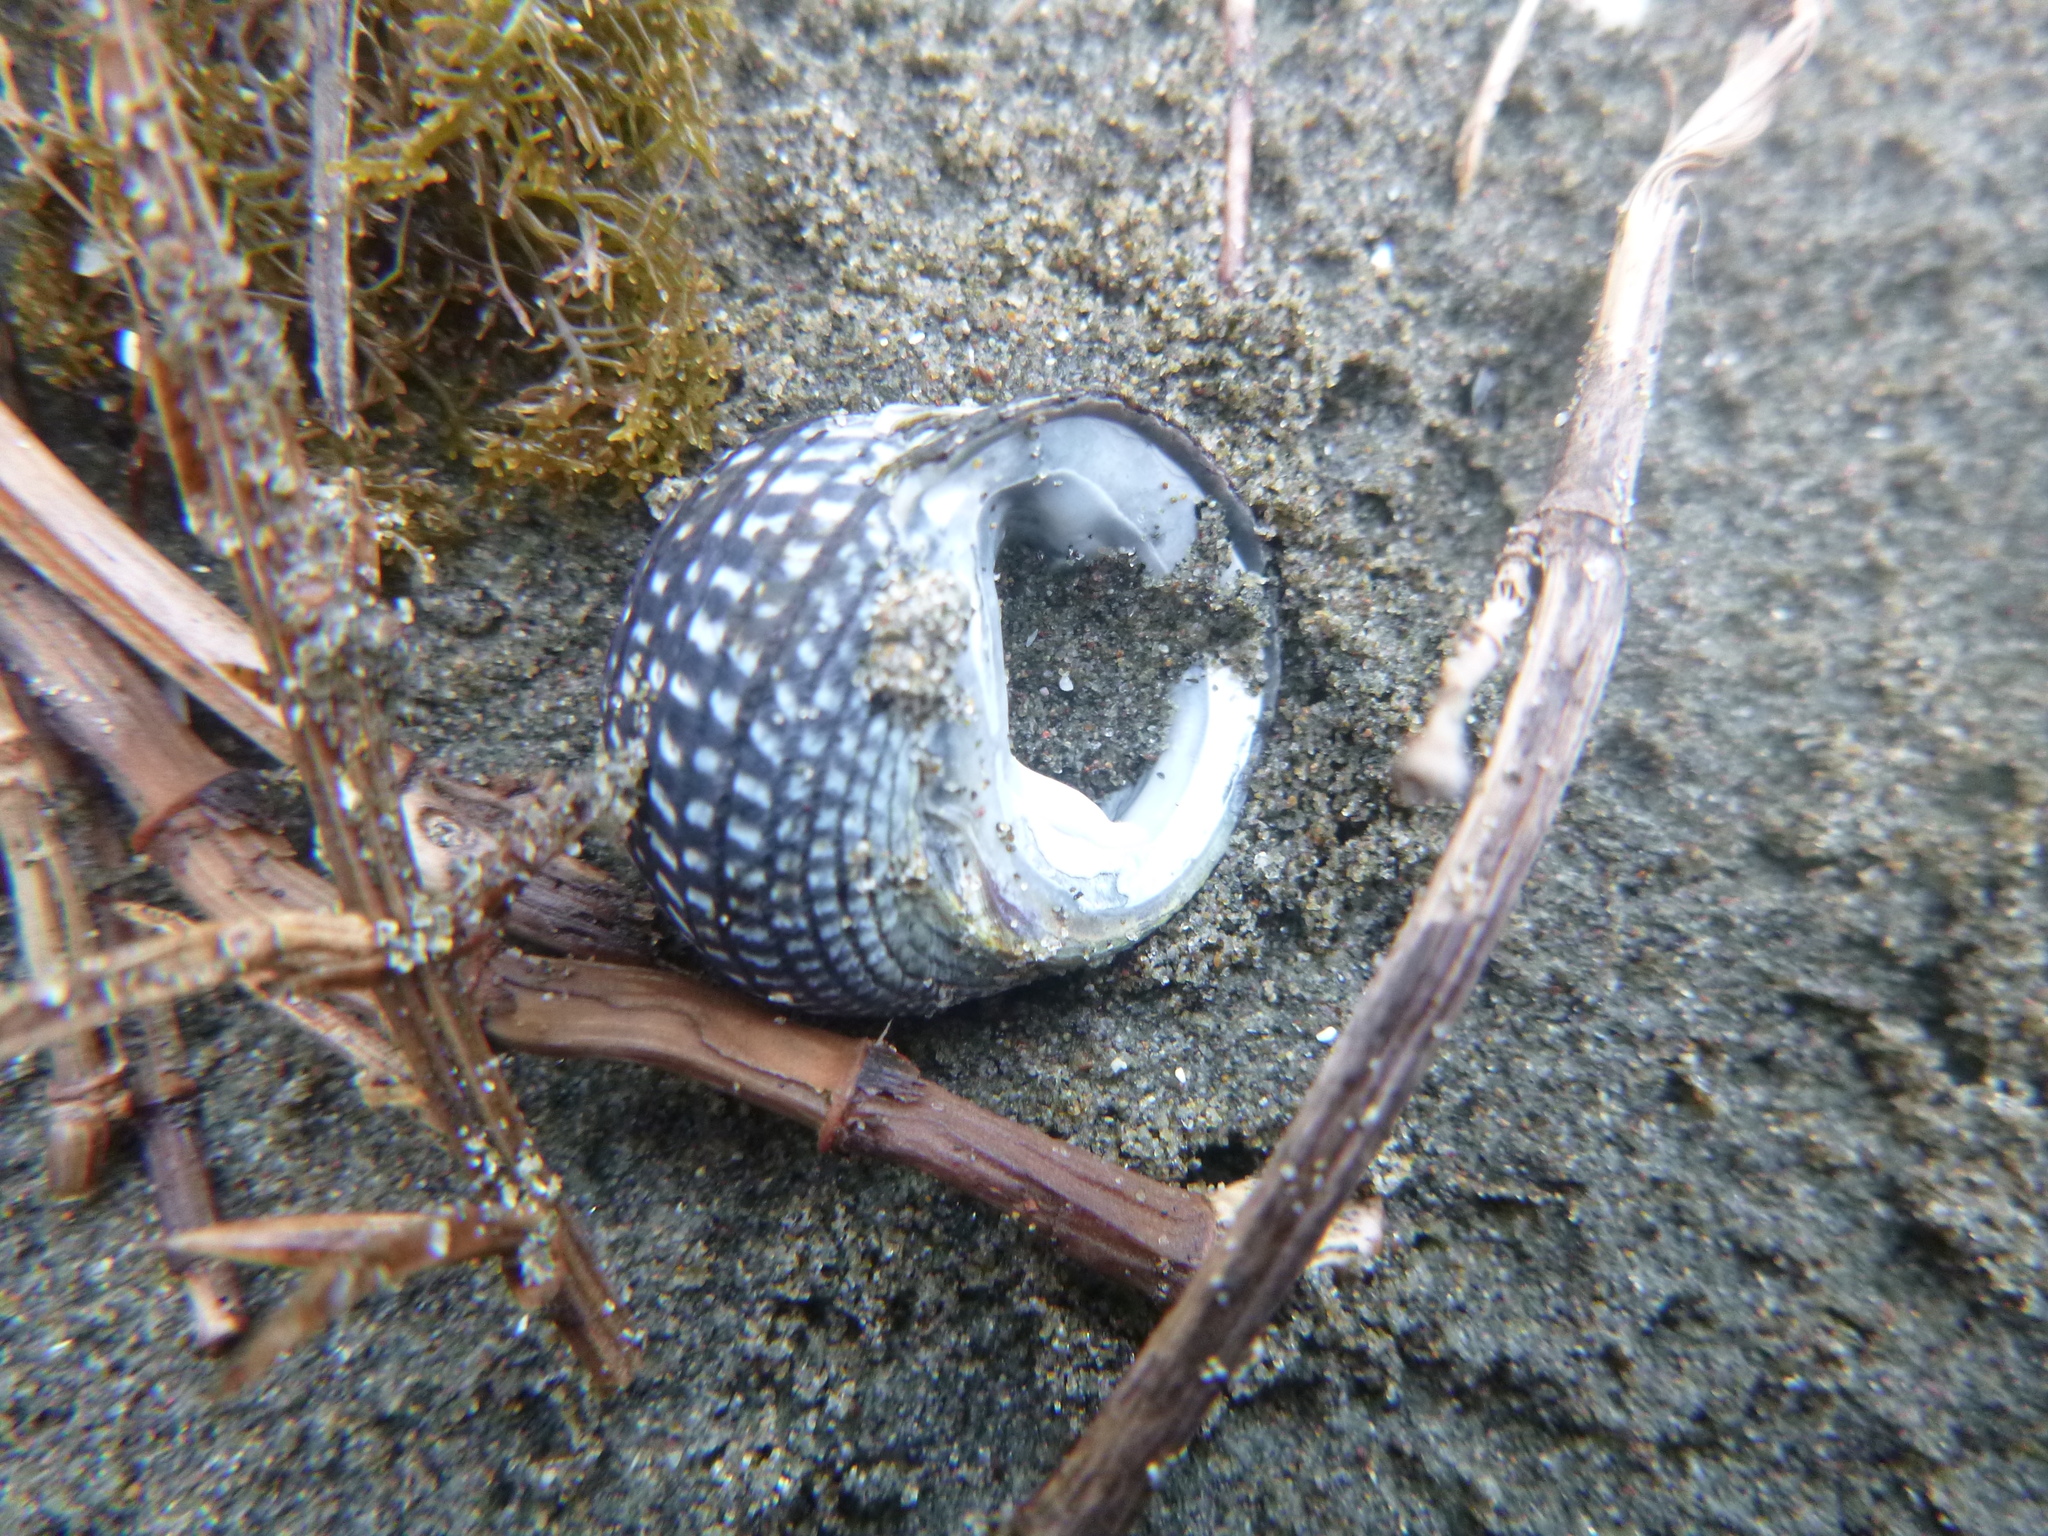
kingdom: Animalia
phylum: Mollusca
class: Gastropoda
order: Trochida
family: Trochidae
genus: Diloma
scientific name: Diloma aethiops
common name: Scorched monodont
